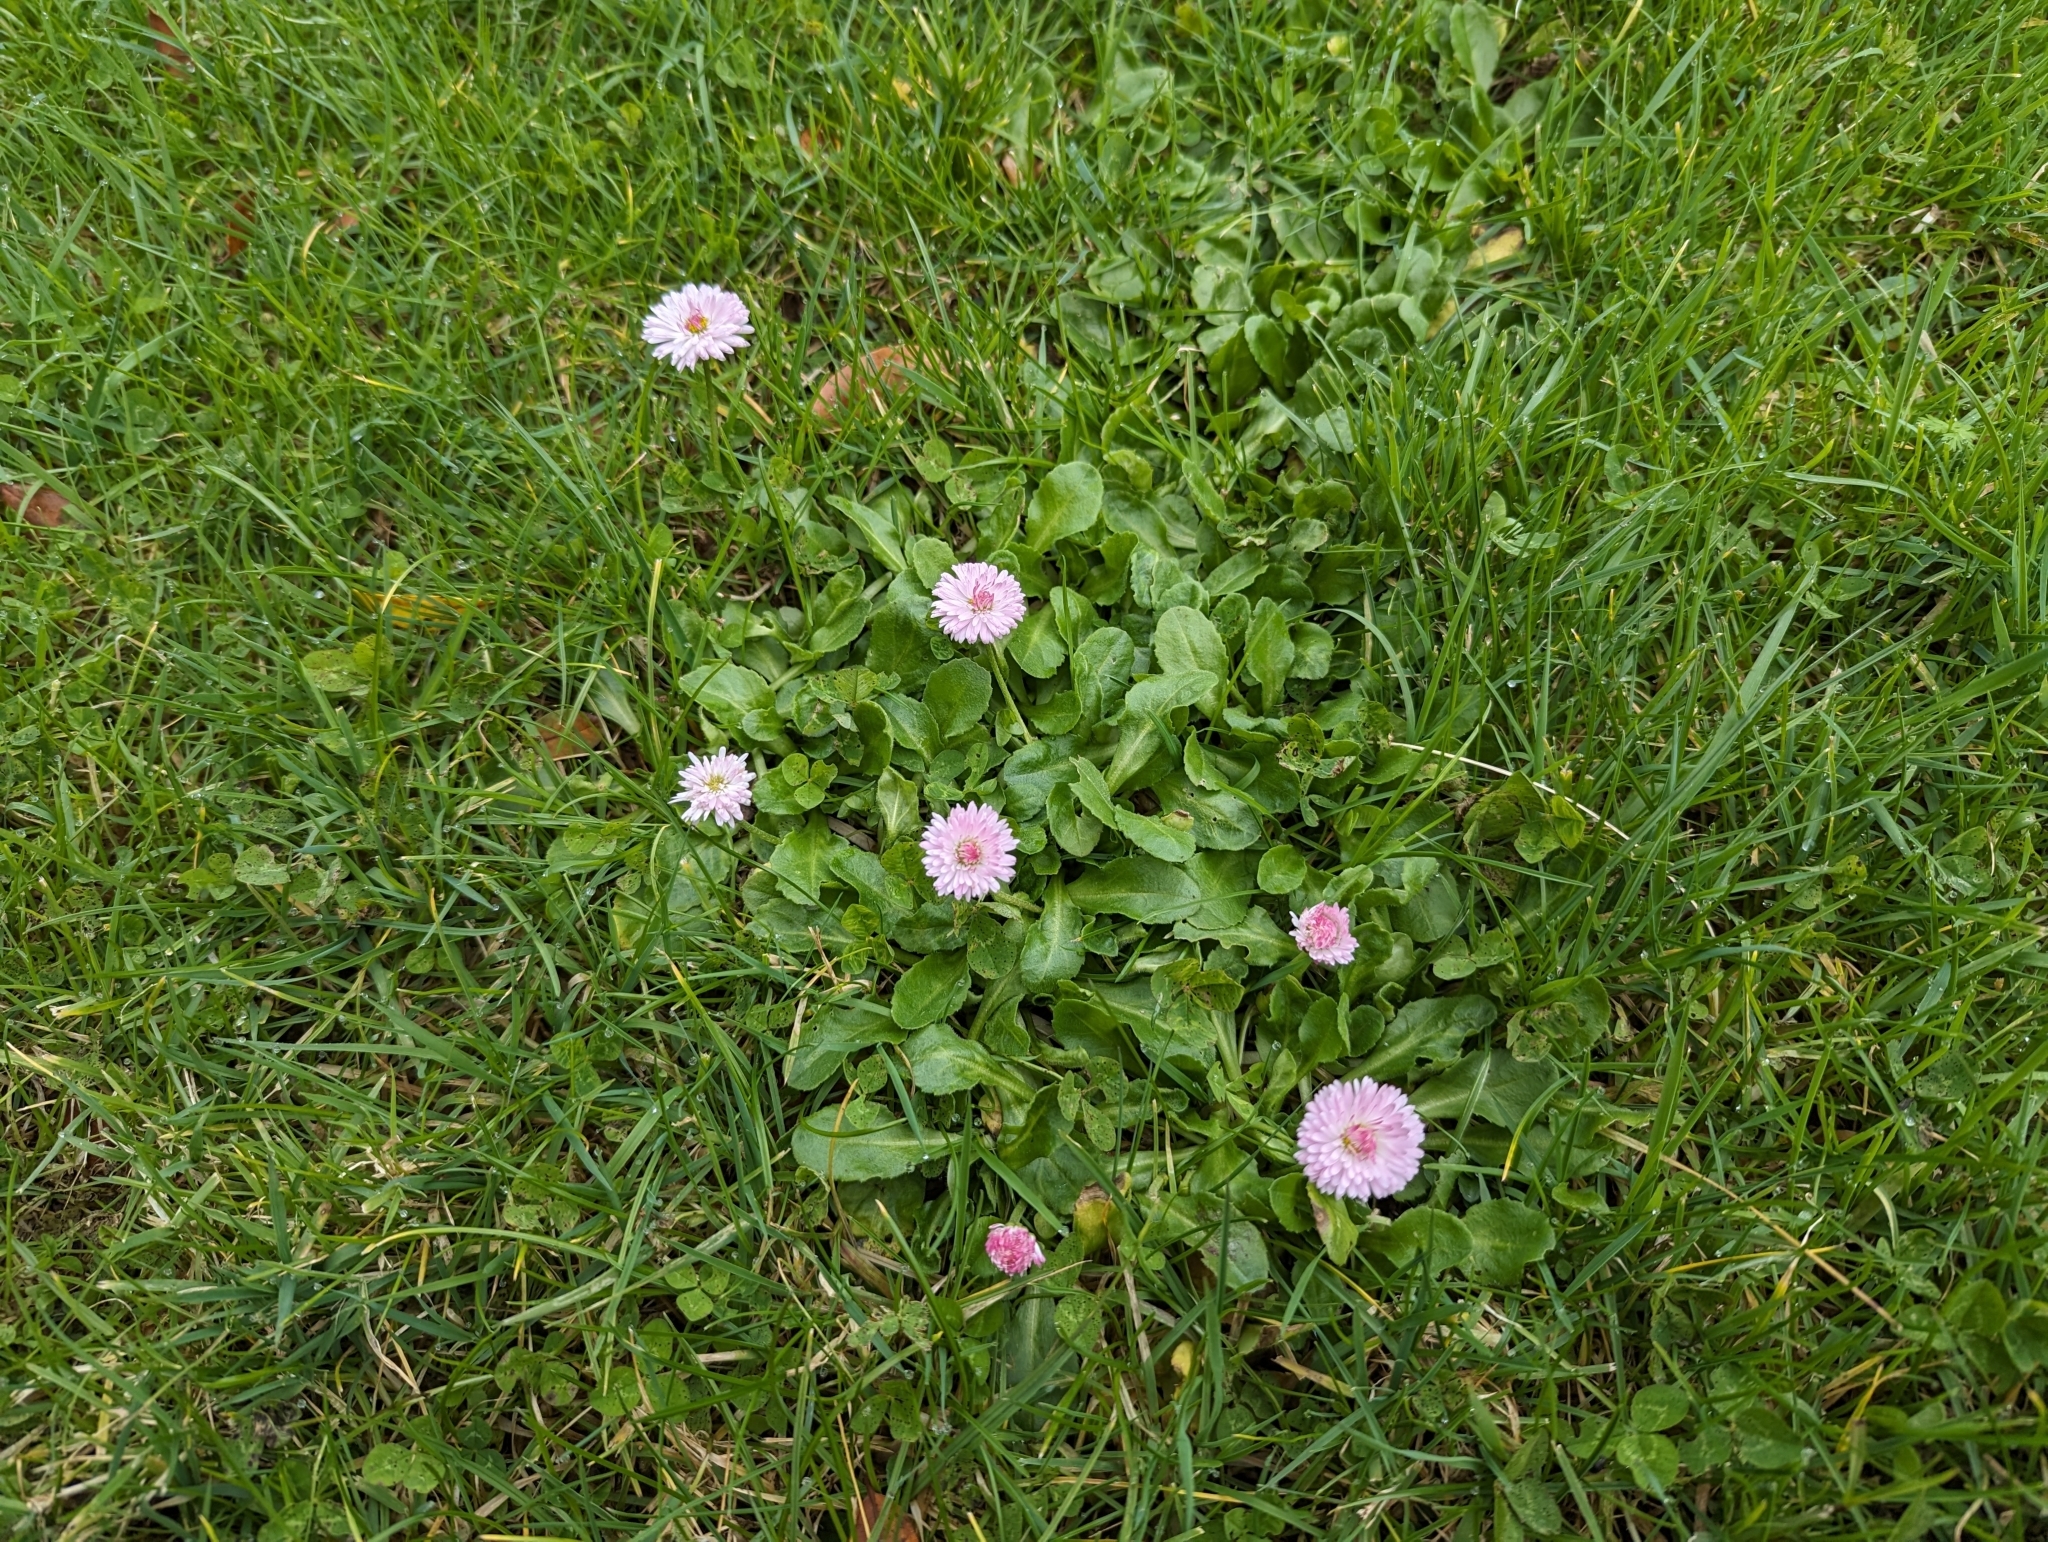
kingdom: Plantae
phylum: Tracheophyta
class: Magnoliopsida
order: Asterales
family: Asteraceae
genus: Bellis
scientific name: Bellis perennis
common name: Lawndaisy
